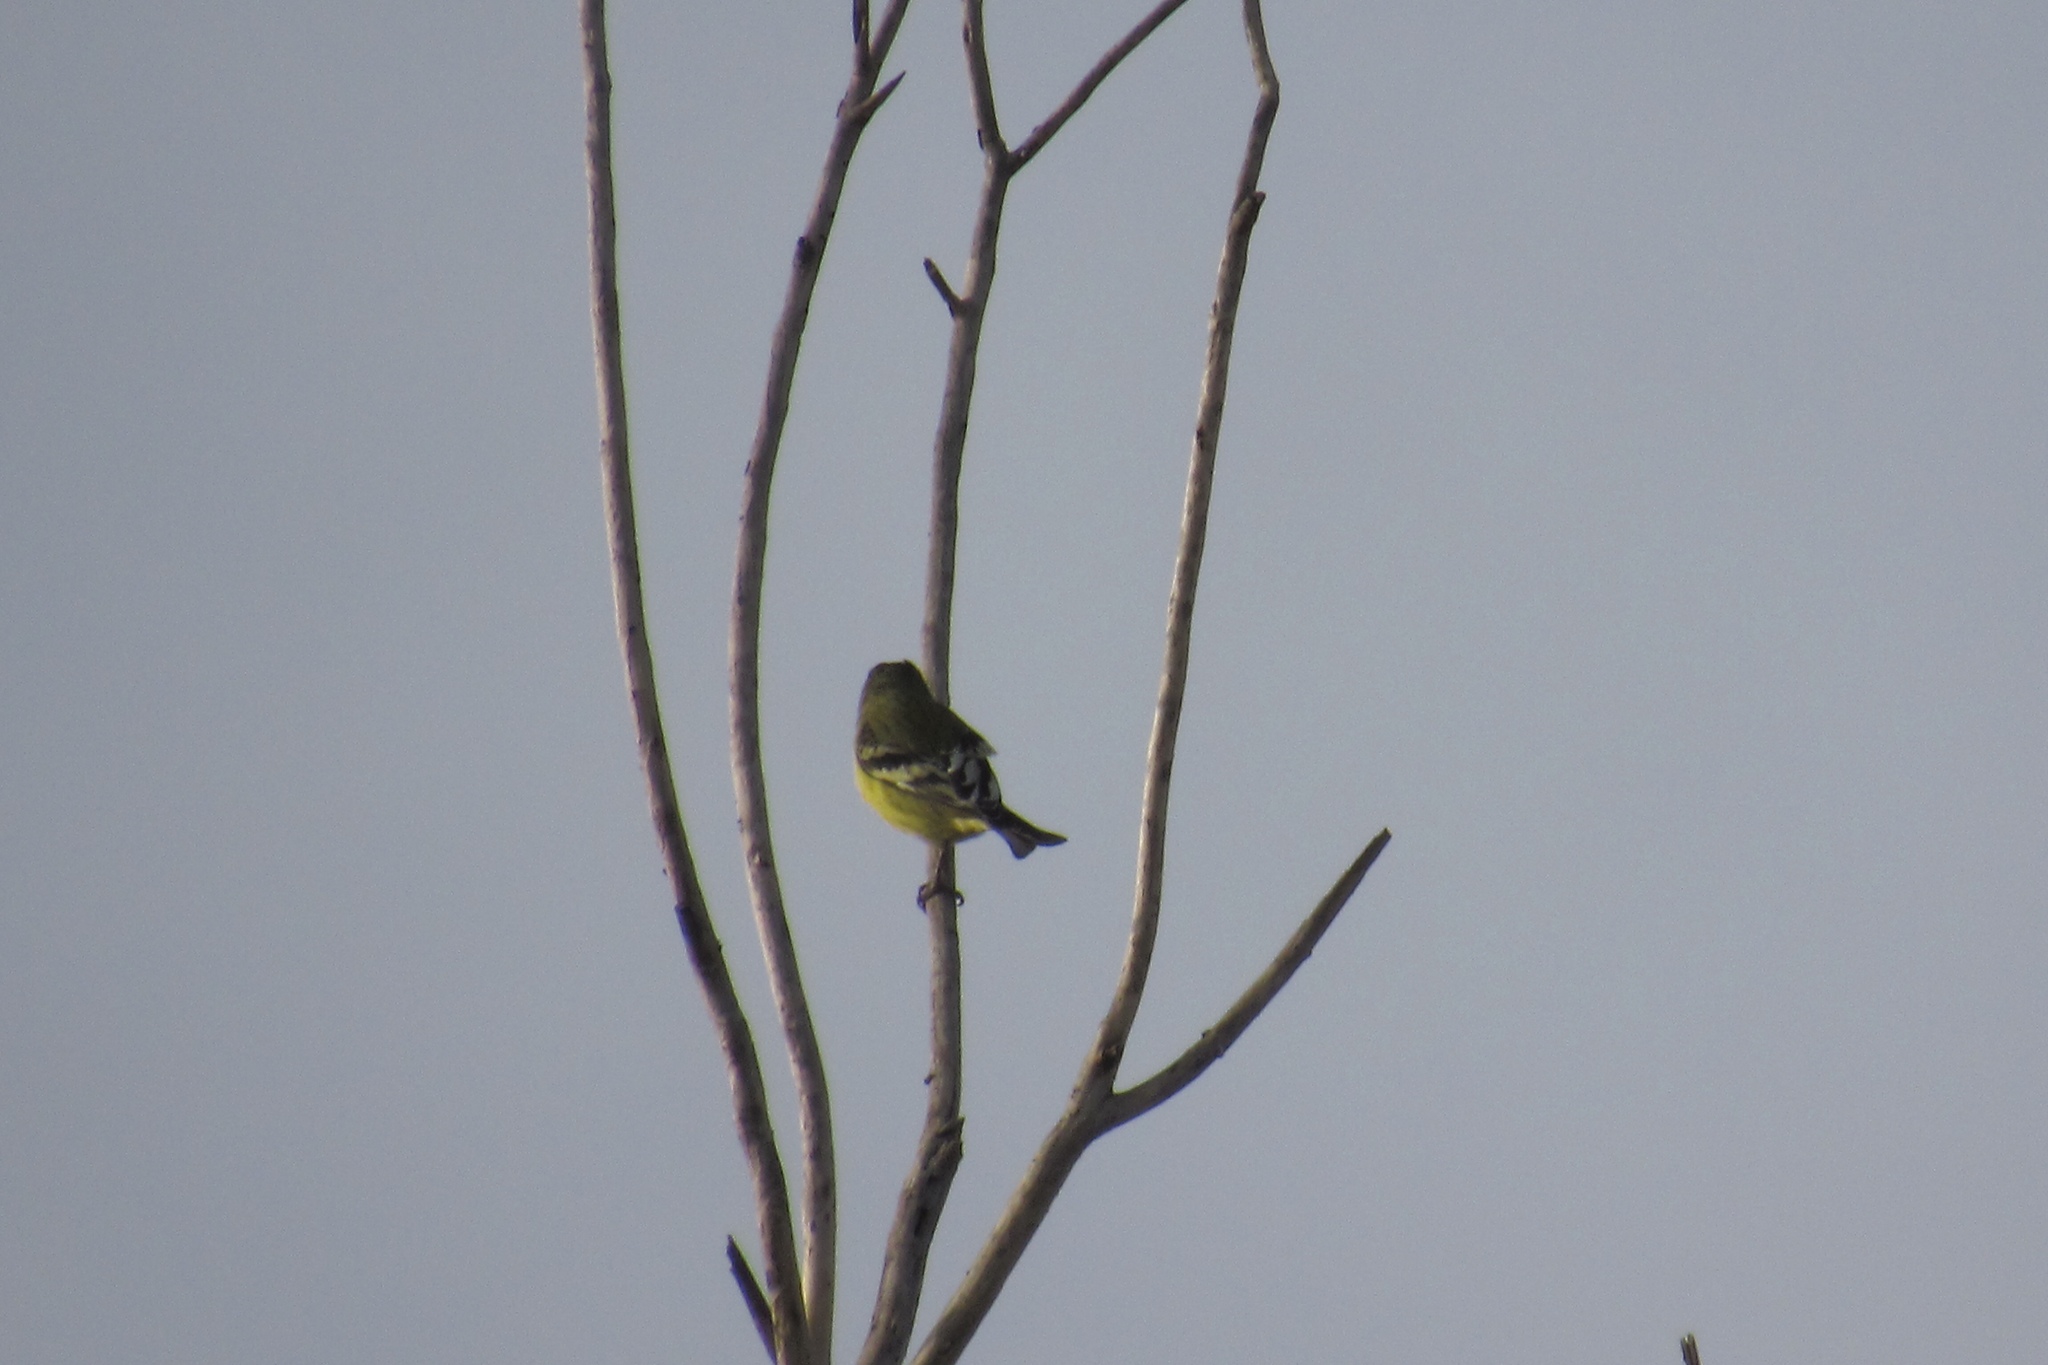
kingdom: Animalia
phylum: Chordata
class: Aves
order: Passeriformes
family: Fringillidae
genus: Spinus
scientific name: Spinus psaltria
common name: Lesser goldfinch
